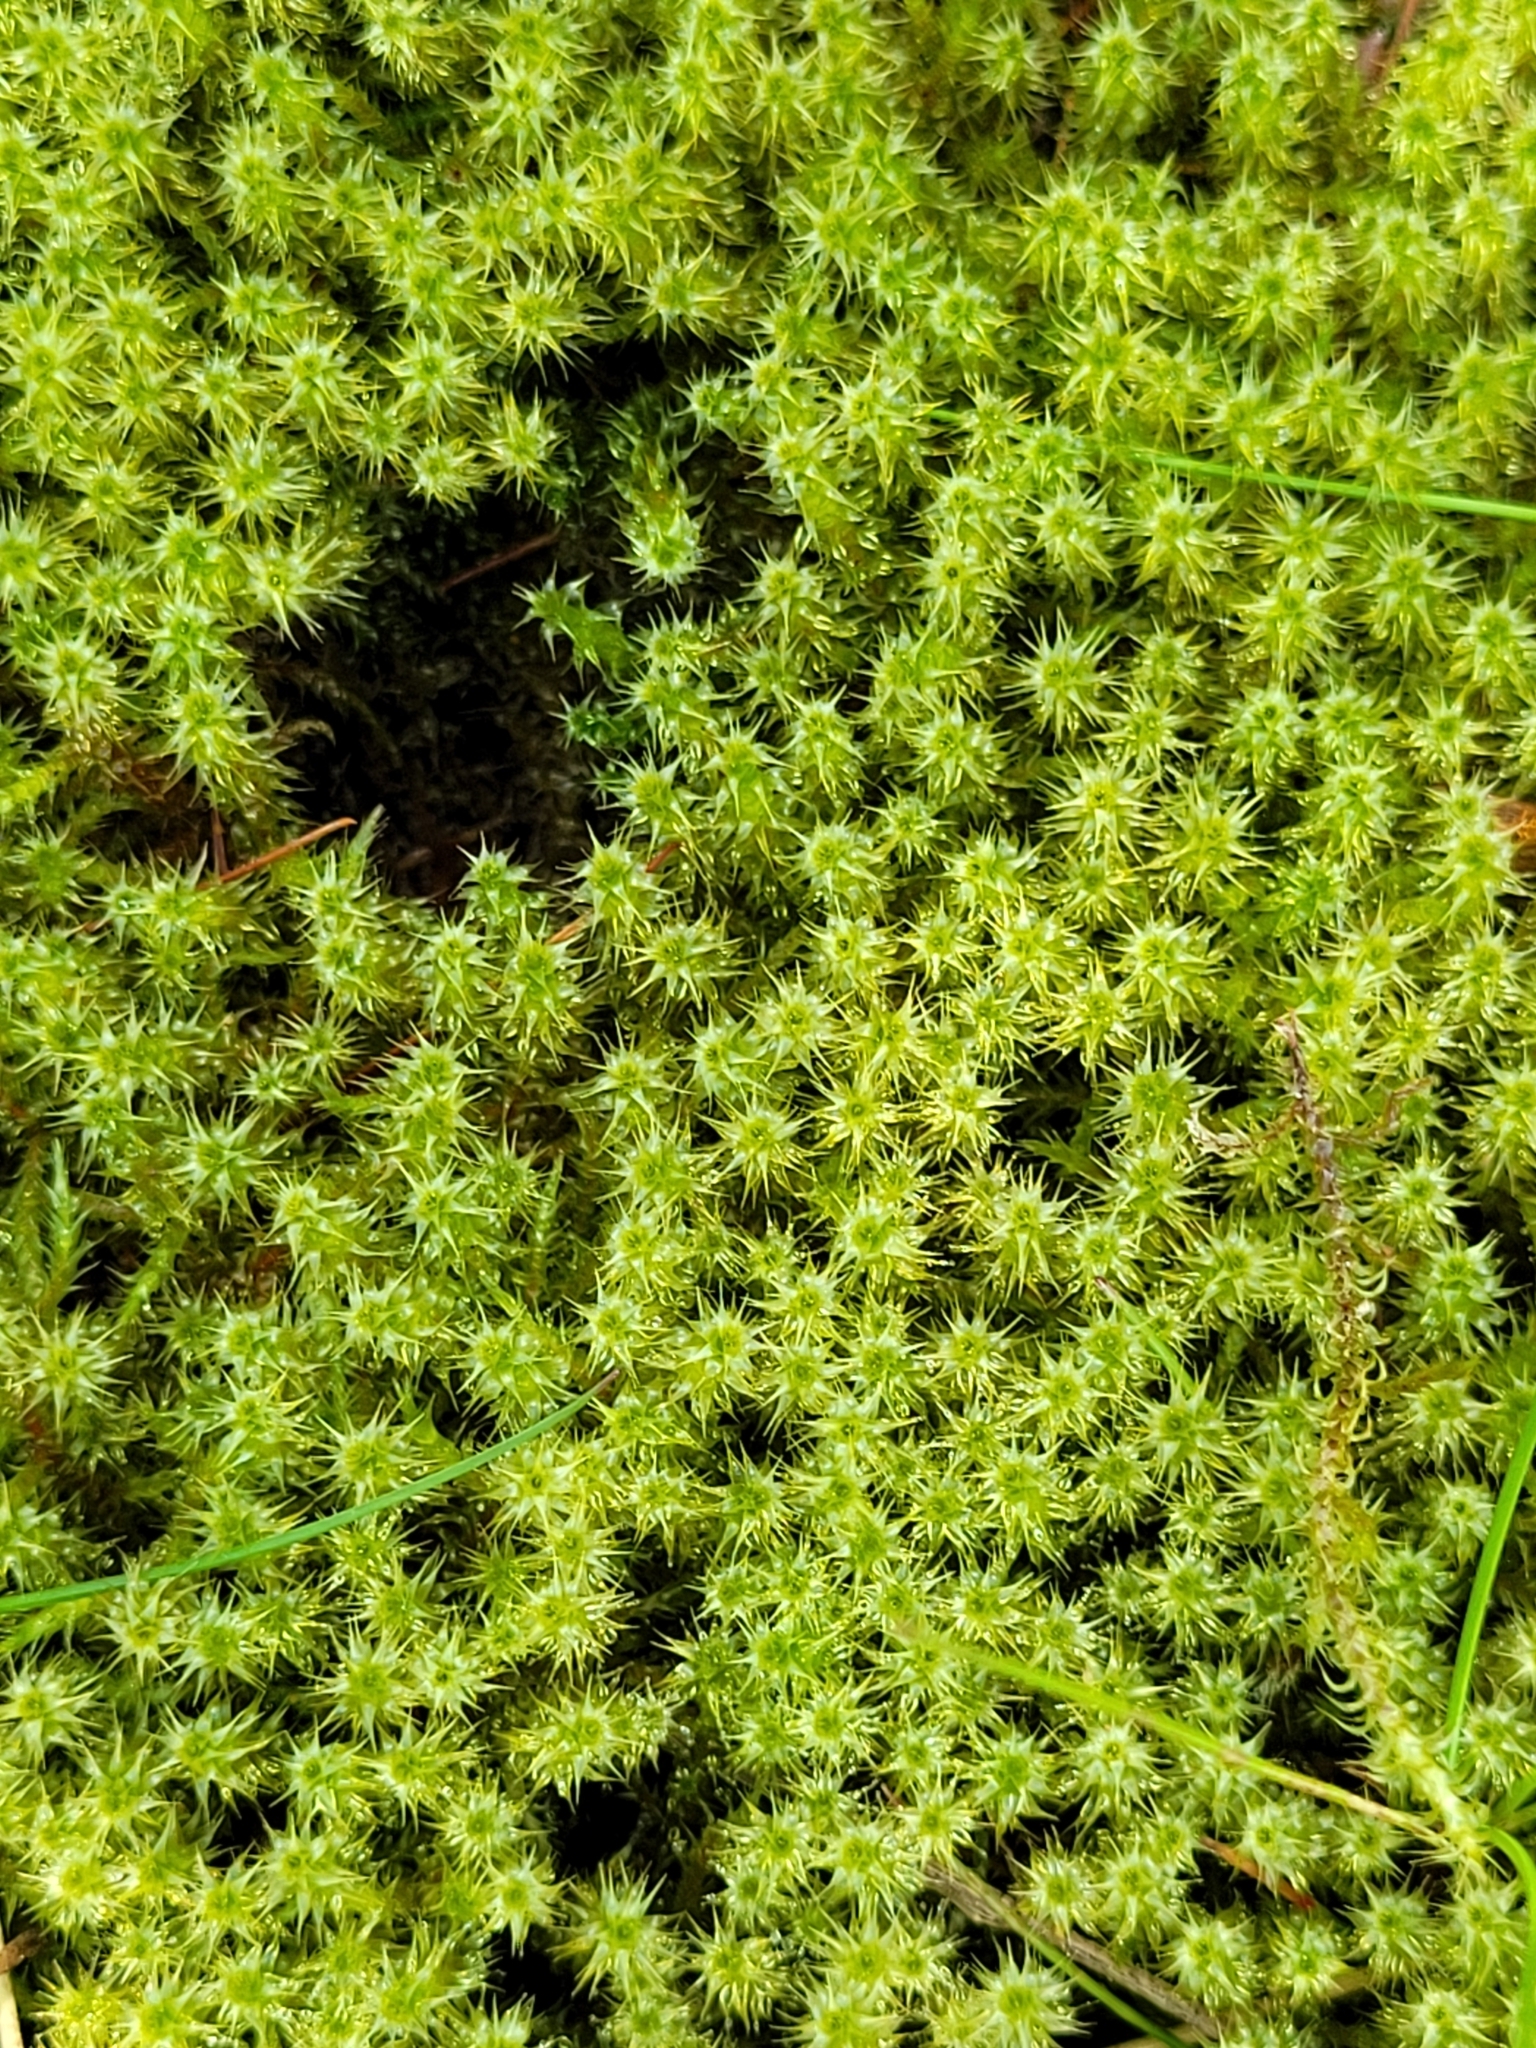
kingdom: Plantae
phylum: Bryophyta
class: Bryopsida
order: Hypnales
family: Hylocomiaceae
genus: Rhytidiadelphus
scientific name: Rhytidiadelphus squarrosus
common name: Springy turf-moss
